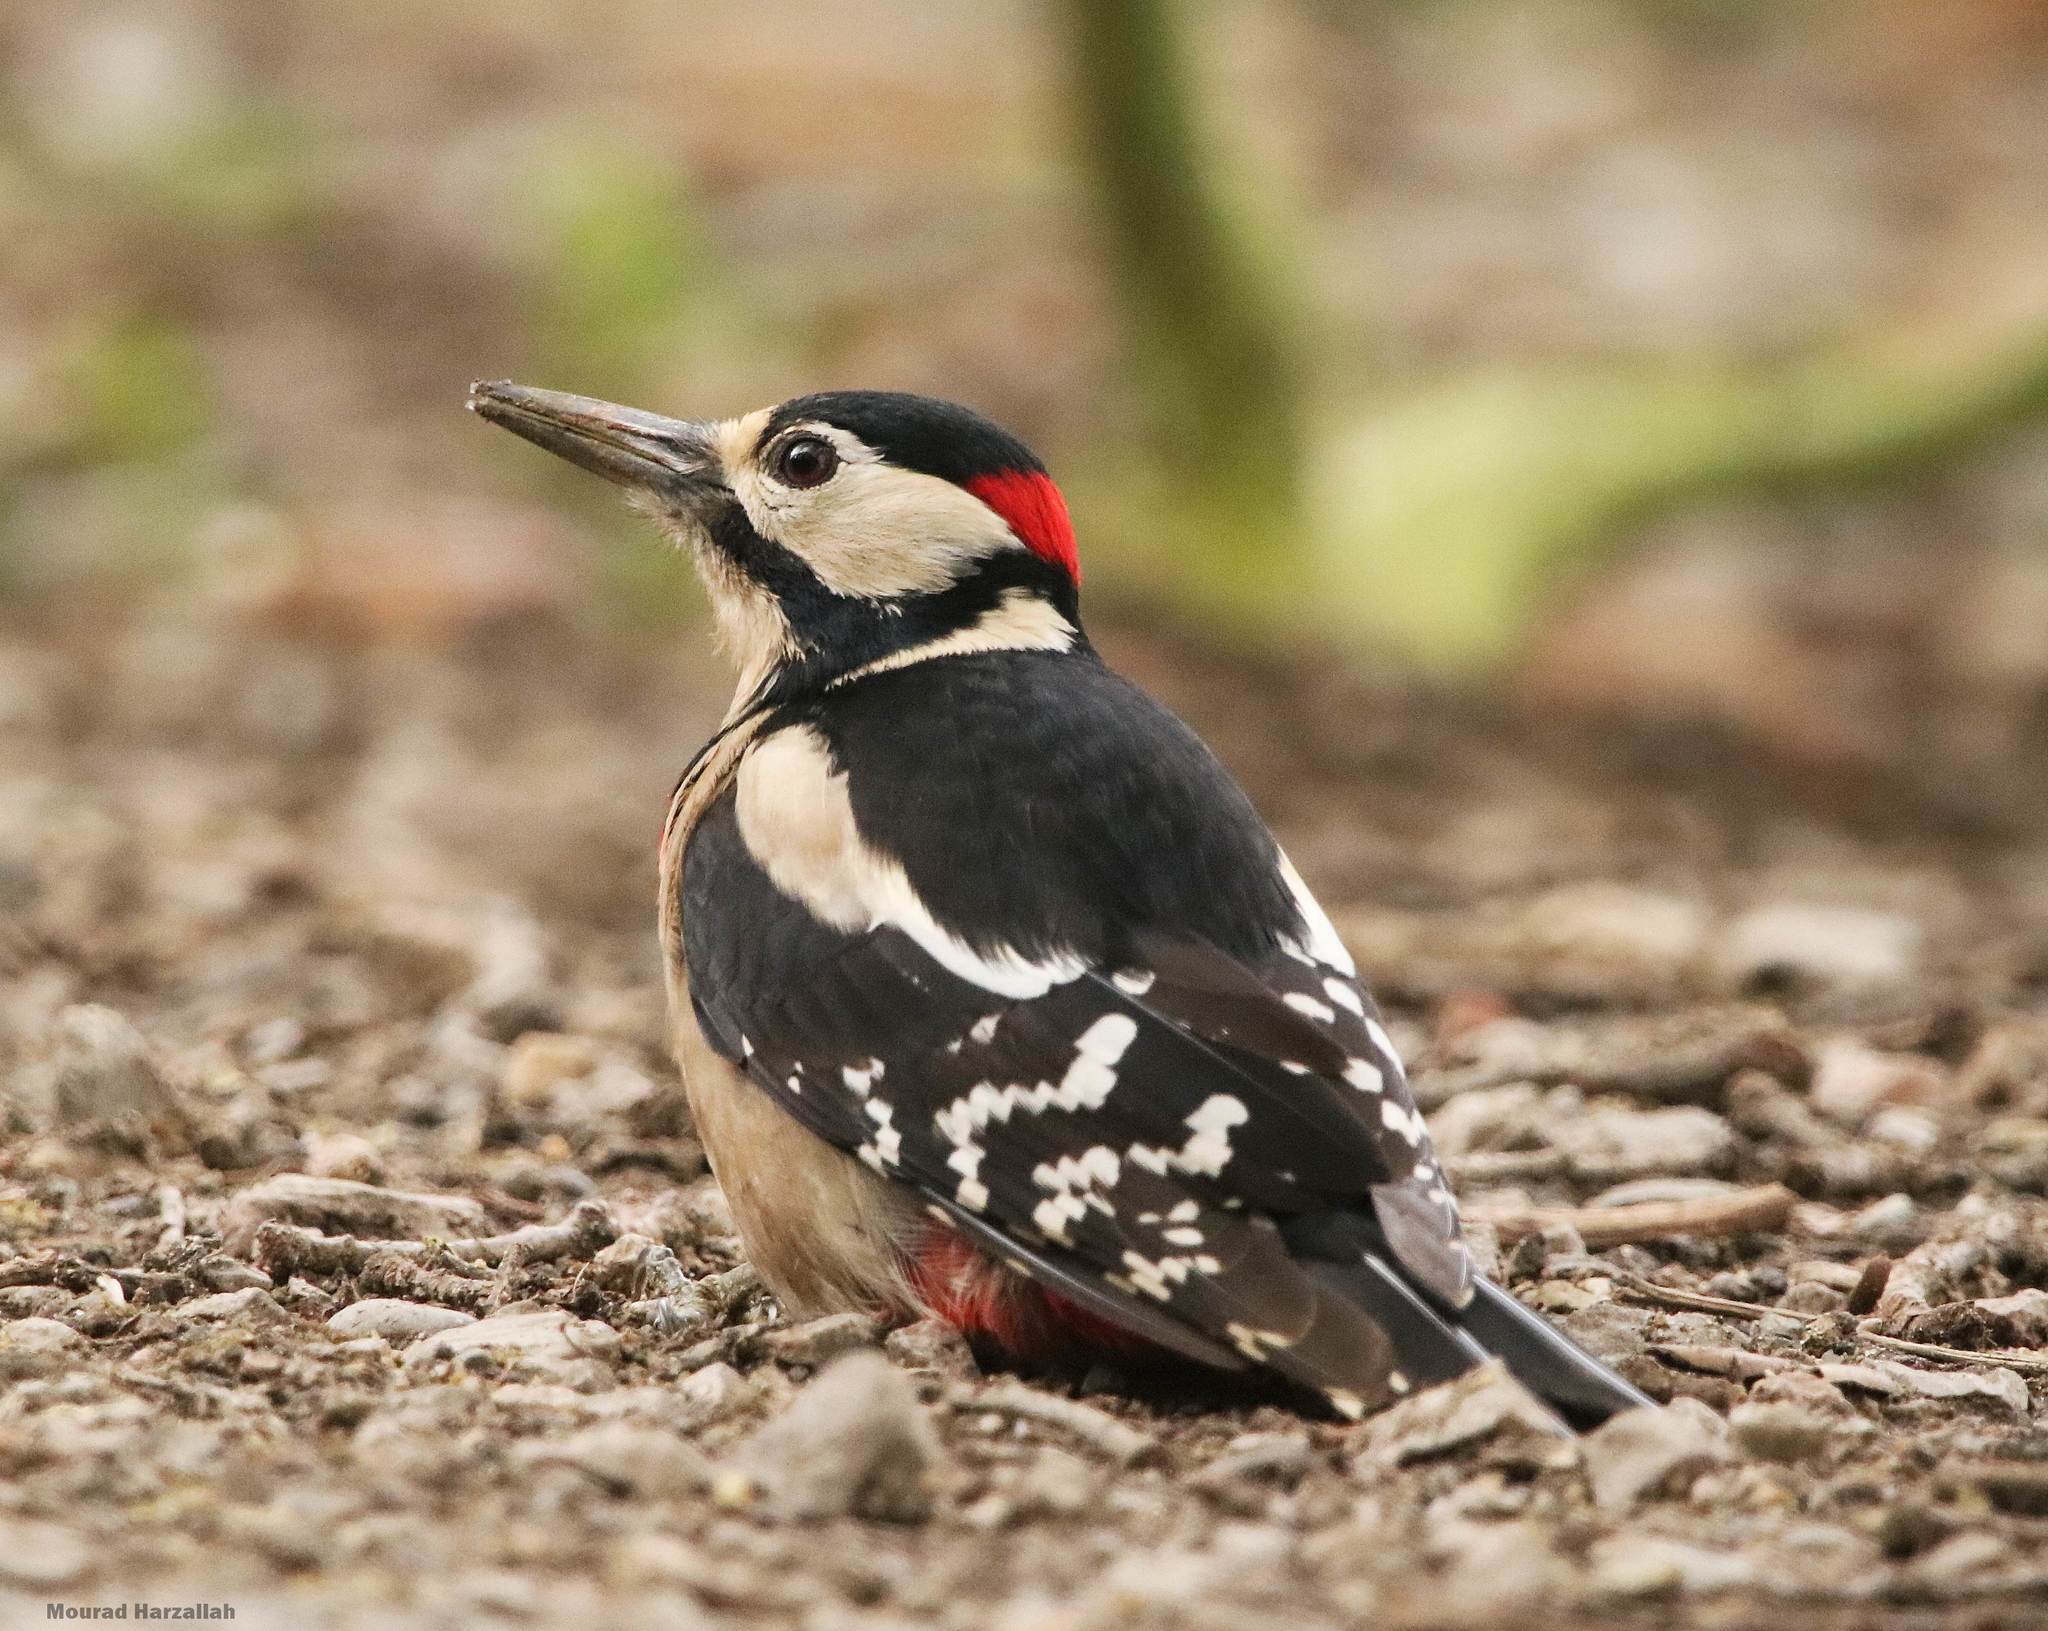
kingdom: Animalia
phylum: Chordata
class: Aves
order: Piciformes
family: Picidae
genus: Dendrocopos
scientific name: Dendrocopos major
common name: Great spotted woodpecker
